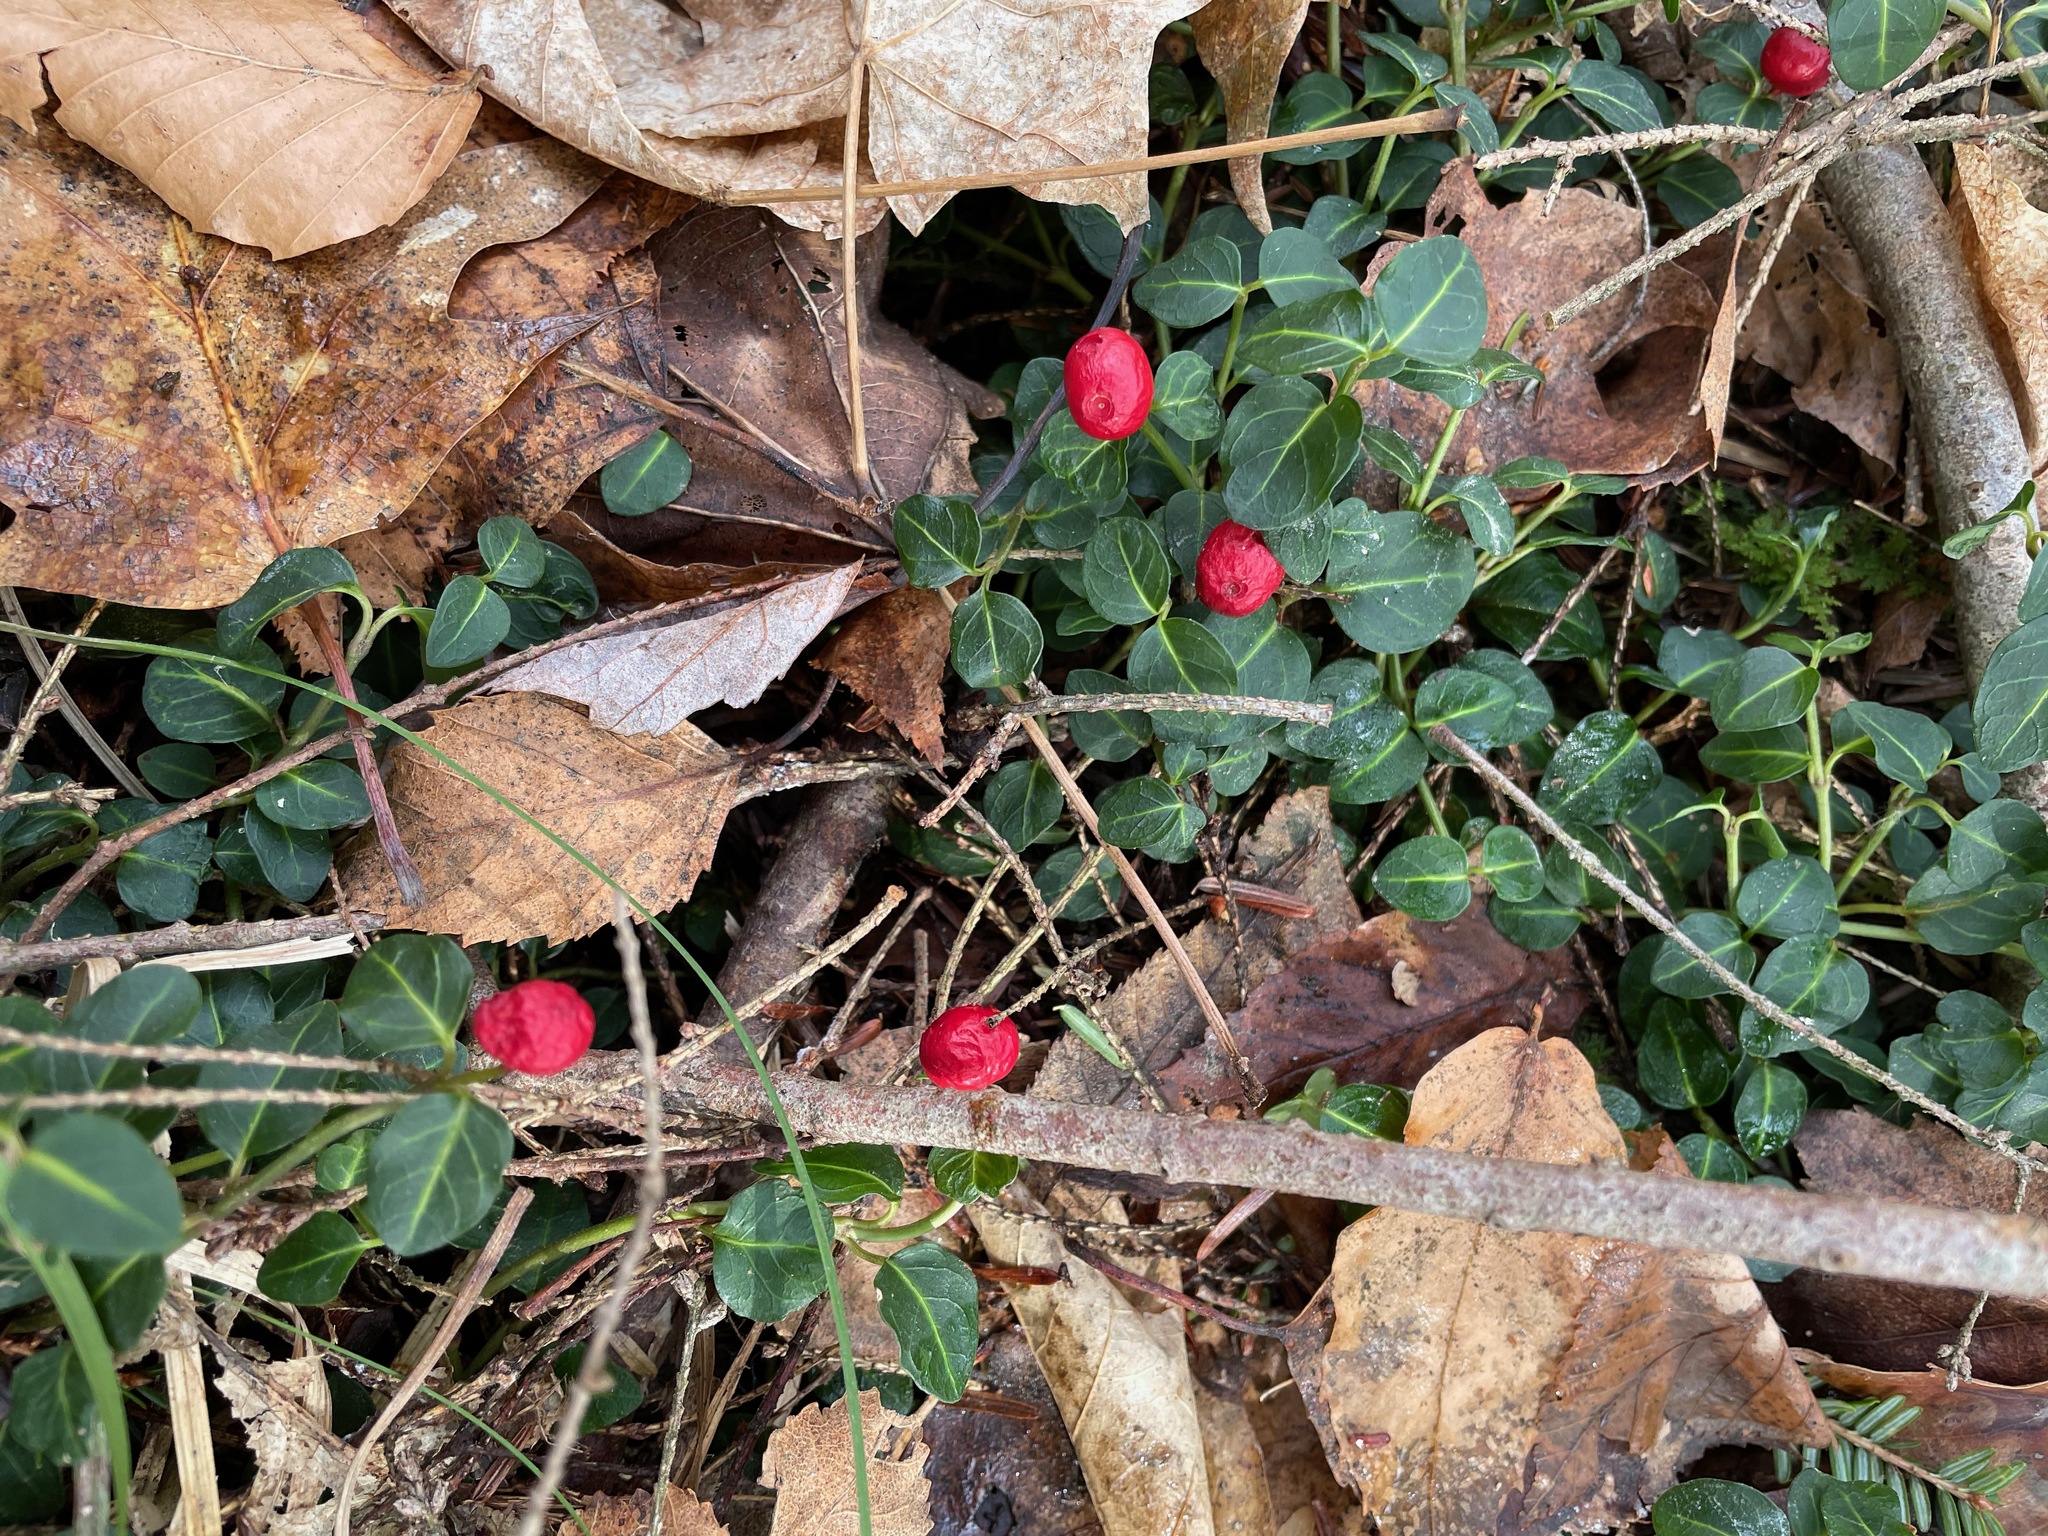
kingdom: Plantae
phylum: Tracheophyta
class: Magnoliopsida
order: Gentianales
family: Rubiaceae
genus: Mitchella
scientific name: Mitchella repens
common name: Partridge-berry
